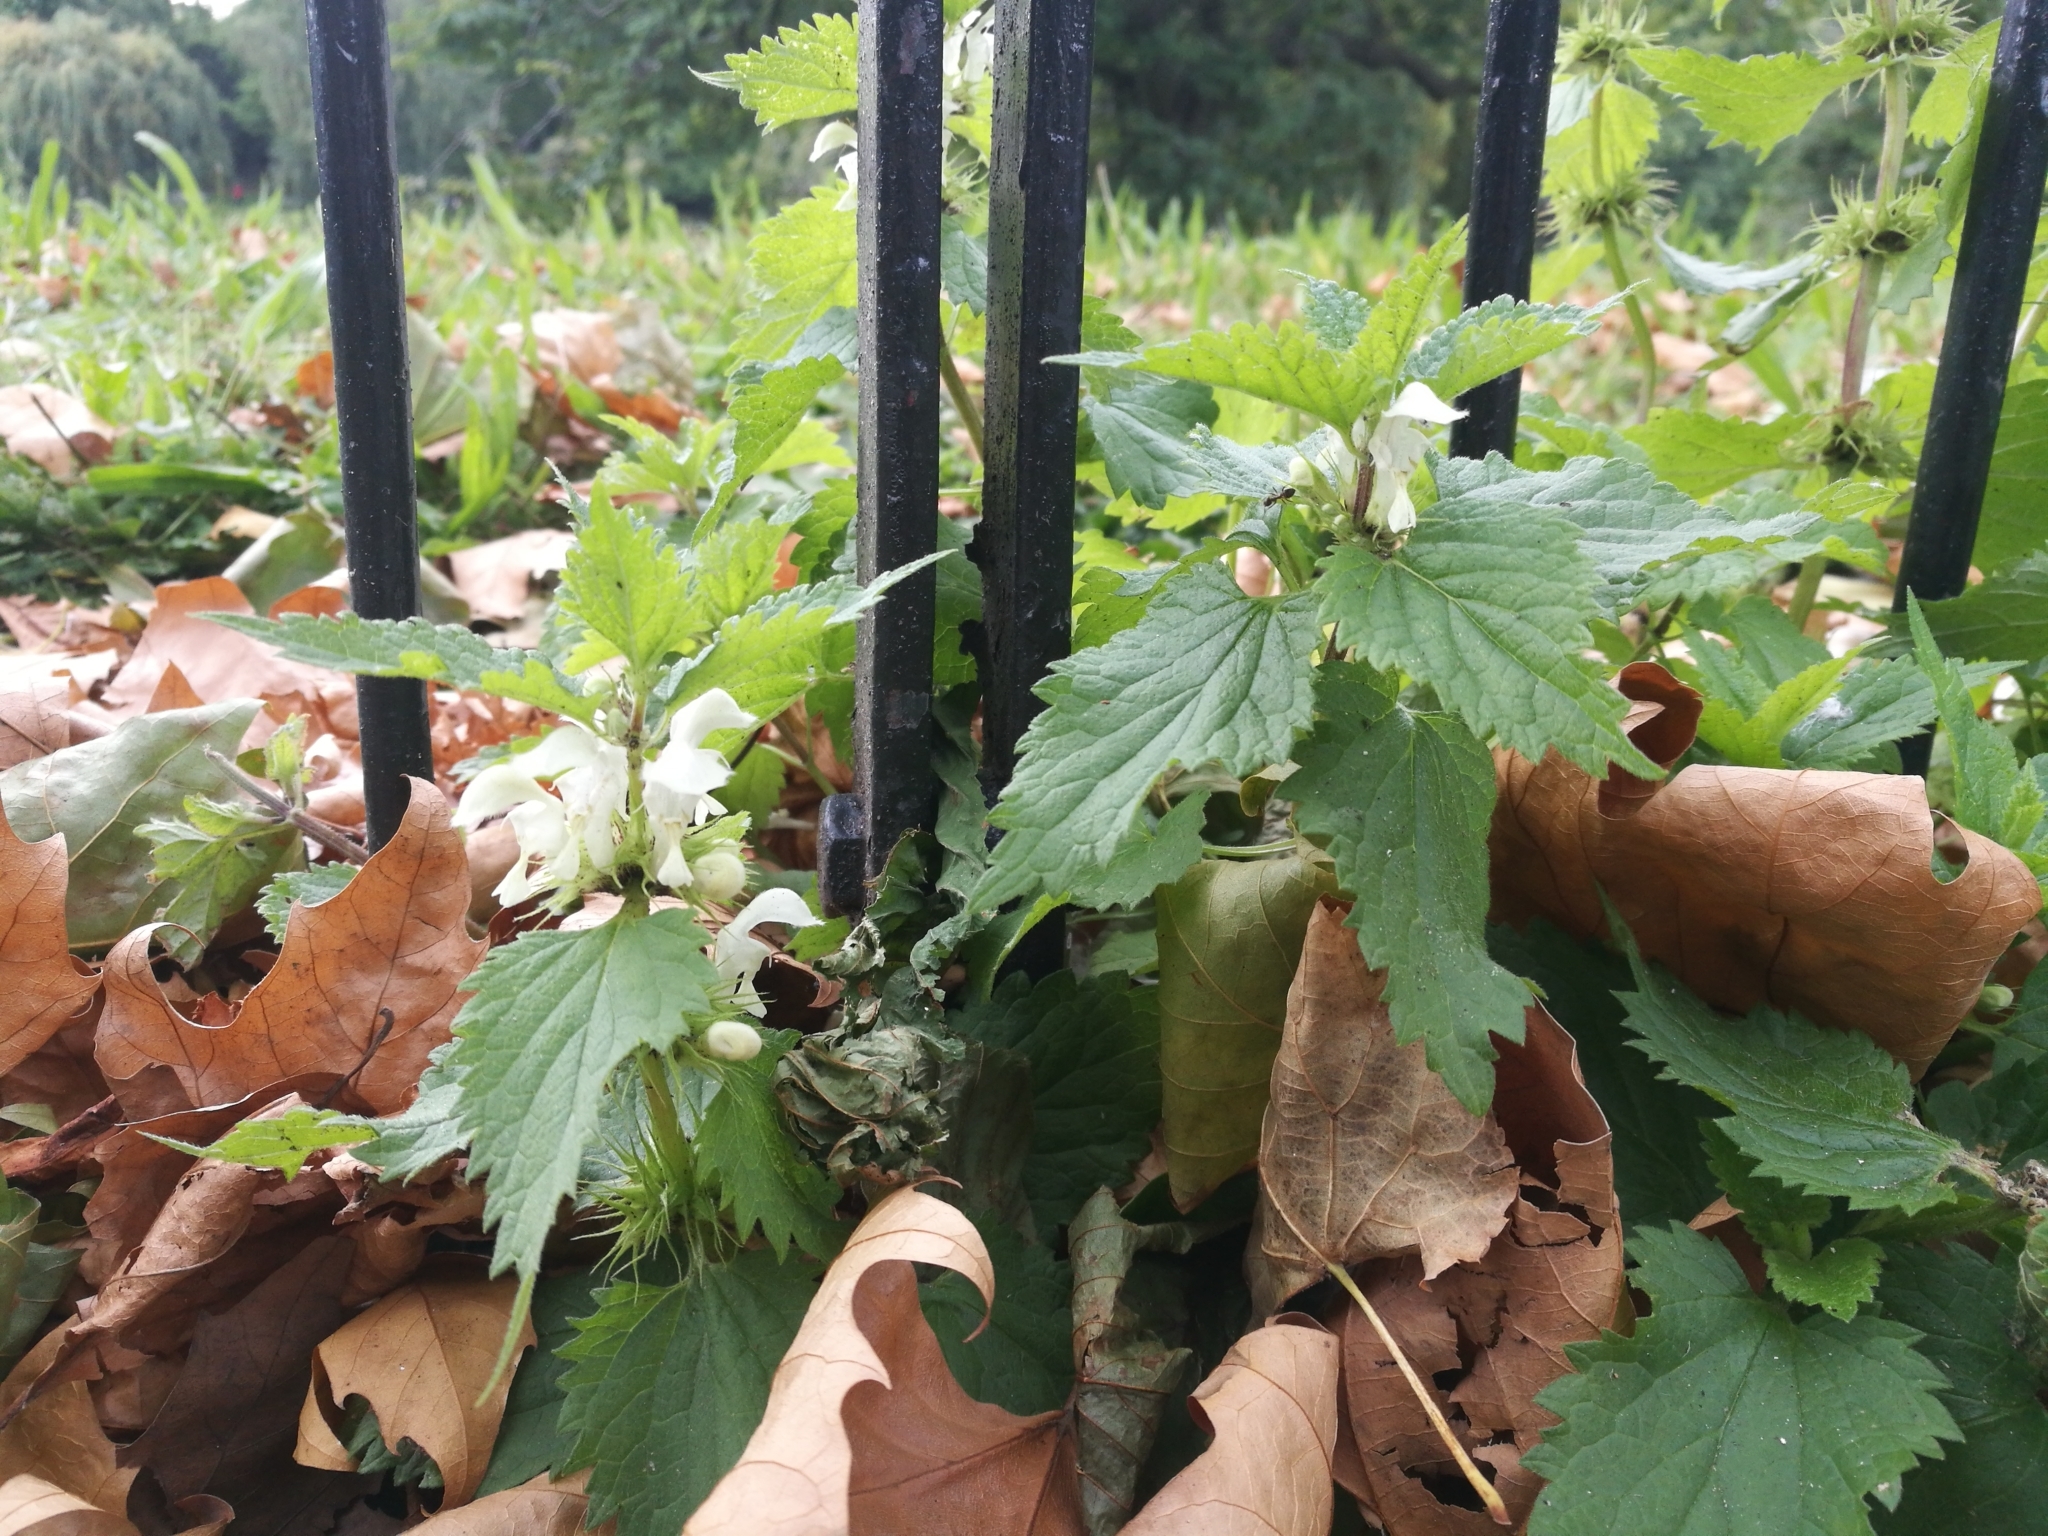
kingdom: Plantae
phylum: Tracheophyta
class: Magnoliopsida
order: Lamiales
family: Lamiaceae
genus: Lamium
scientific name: Lamium album
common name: White dead-nettle
